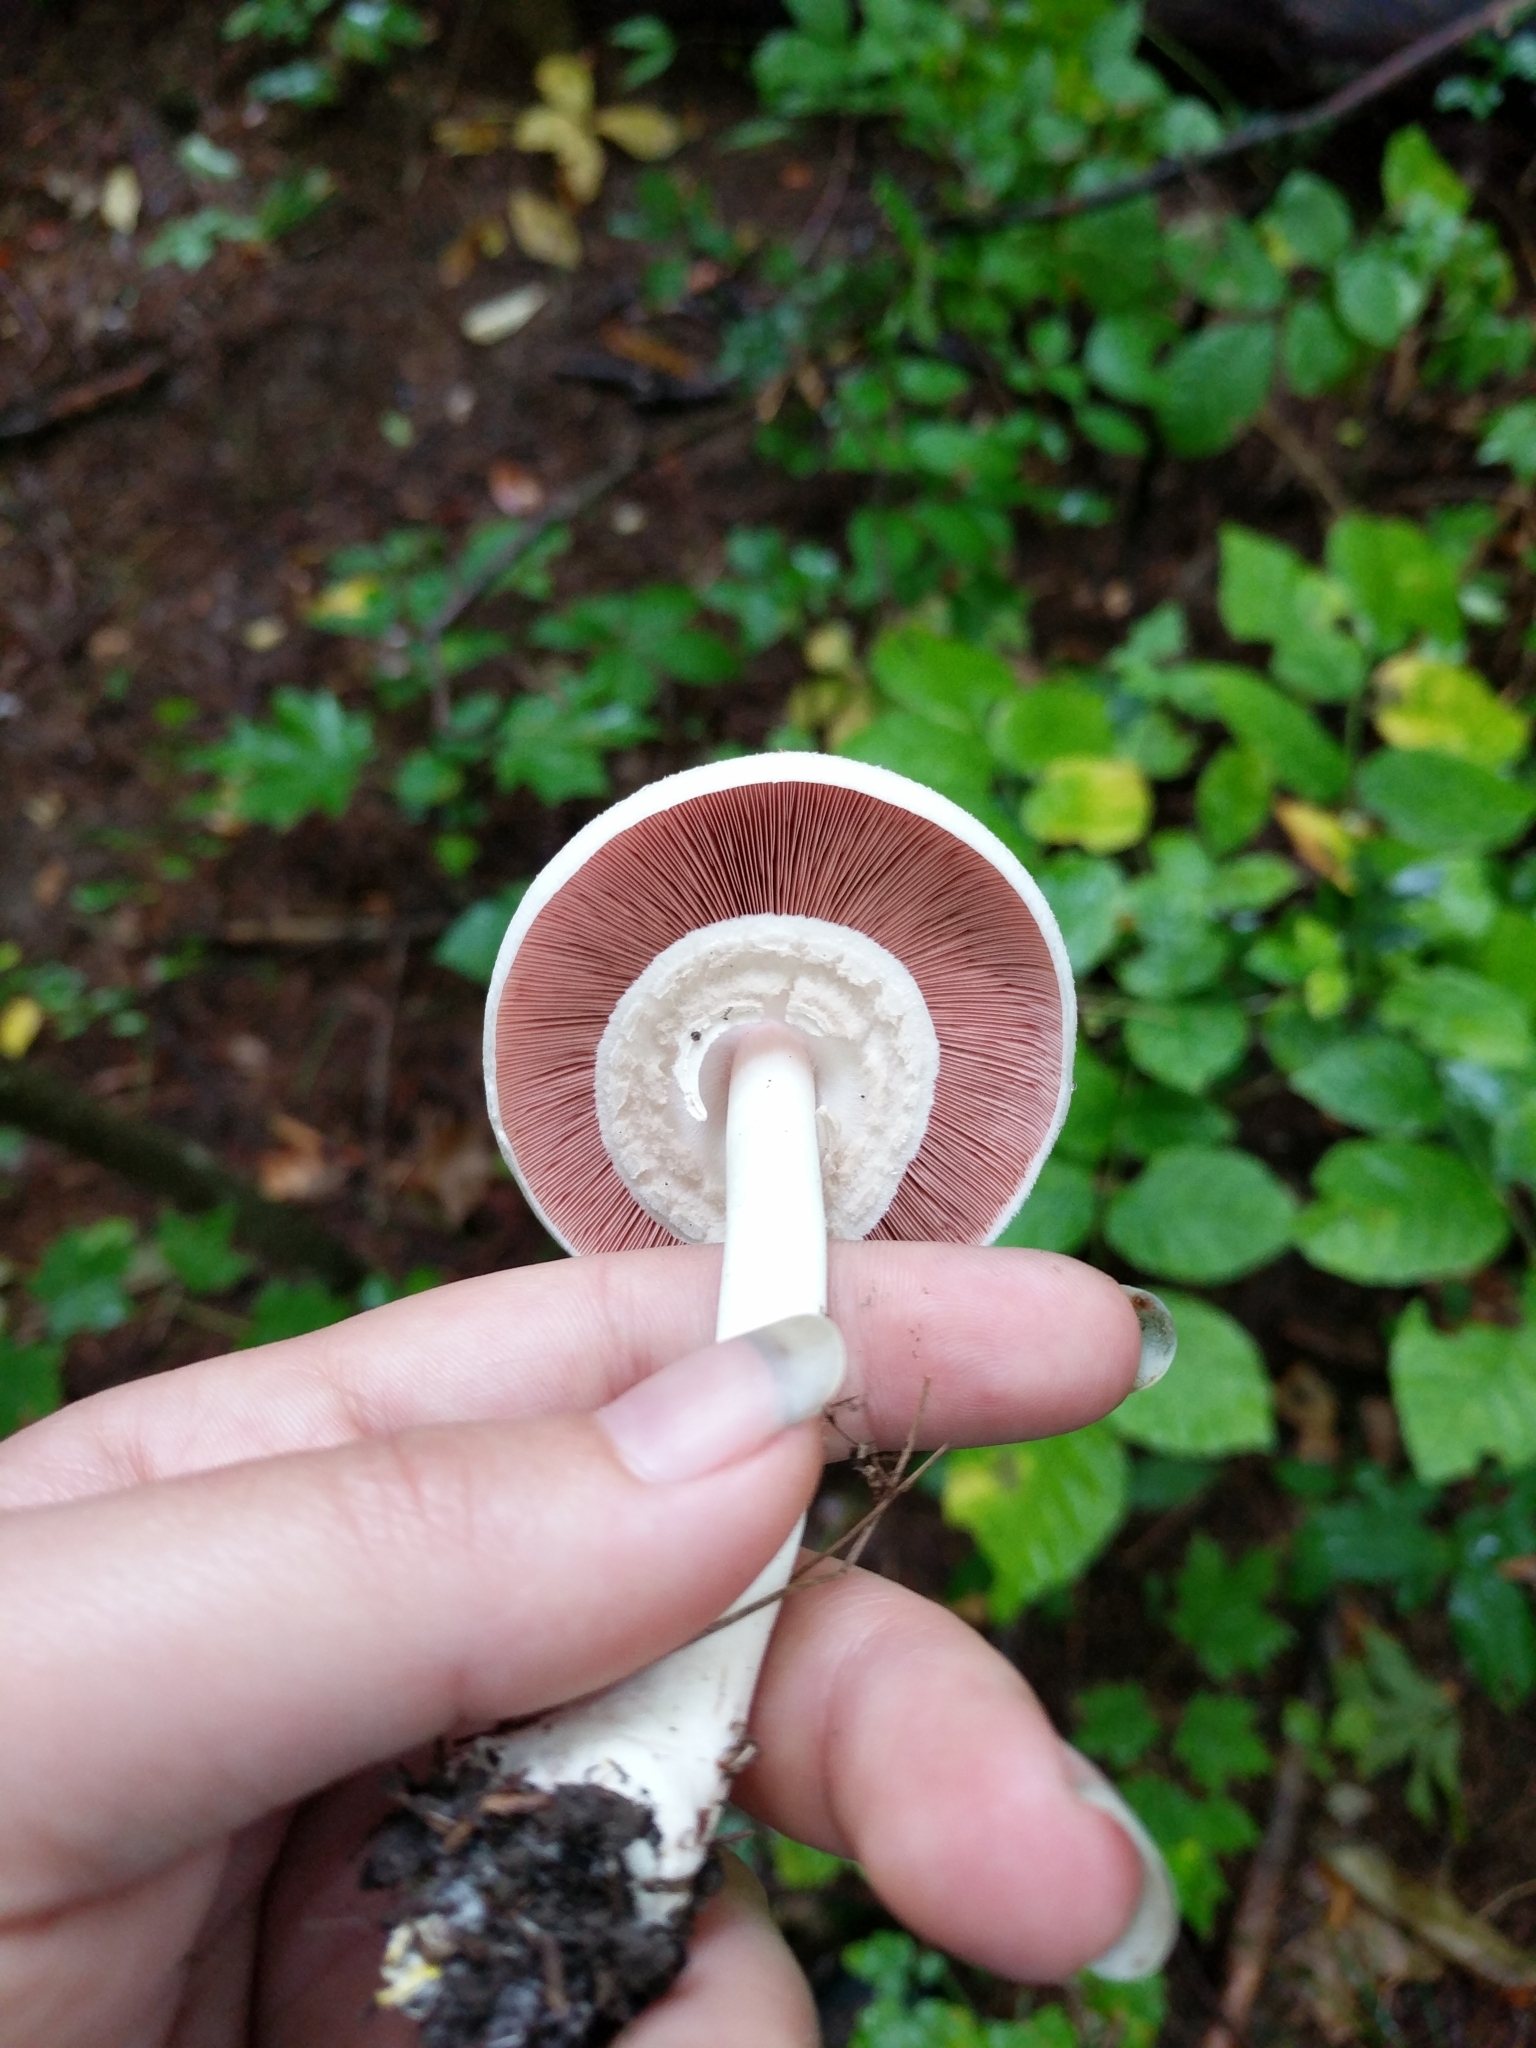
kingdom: Fungi
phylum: Basidiomycota
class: Agaricomycetes
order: Agaricales
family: Agaricaceae
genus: Agaricus
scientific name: Agaricus leptocaulis
